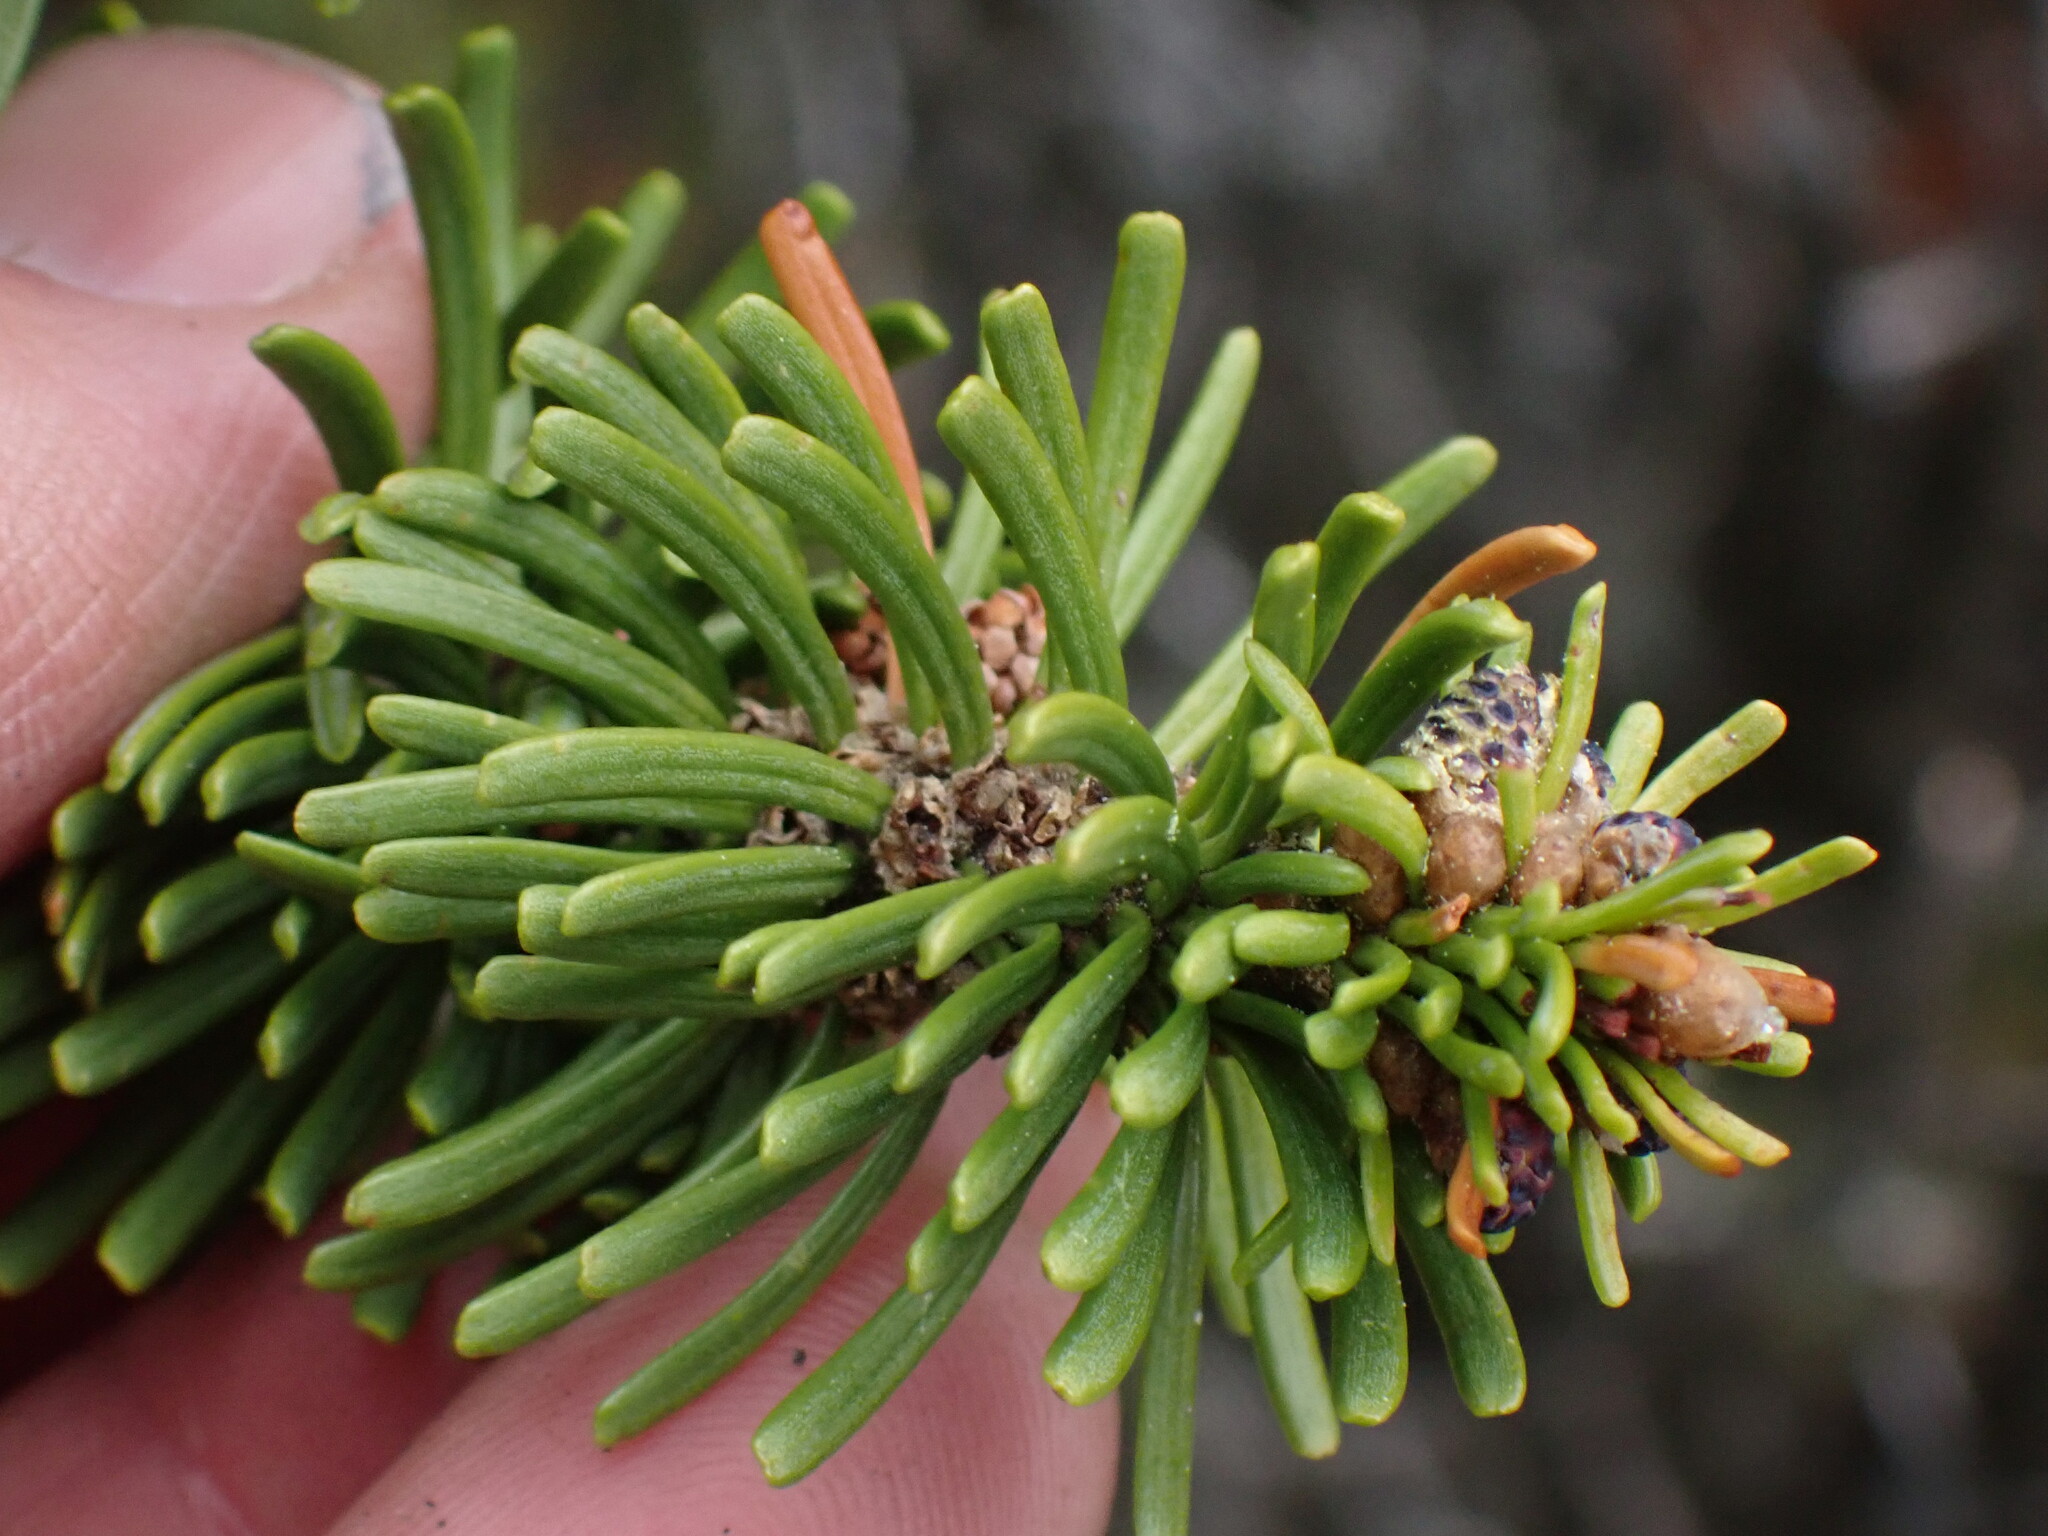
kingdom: Plantae
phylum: Tracheophyta
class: Pinopsida
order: Pinales
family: Pinaceae
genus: Abies
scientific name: Abies lasiocarpa
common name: Subalpine fir
